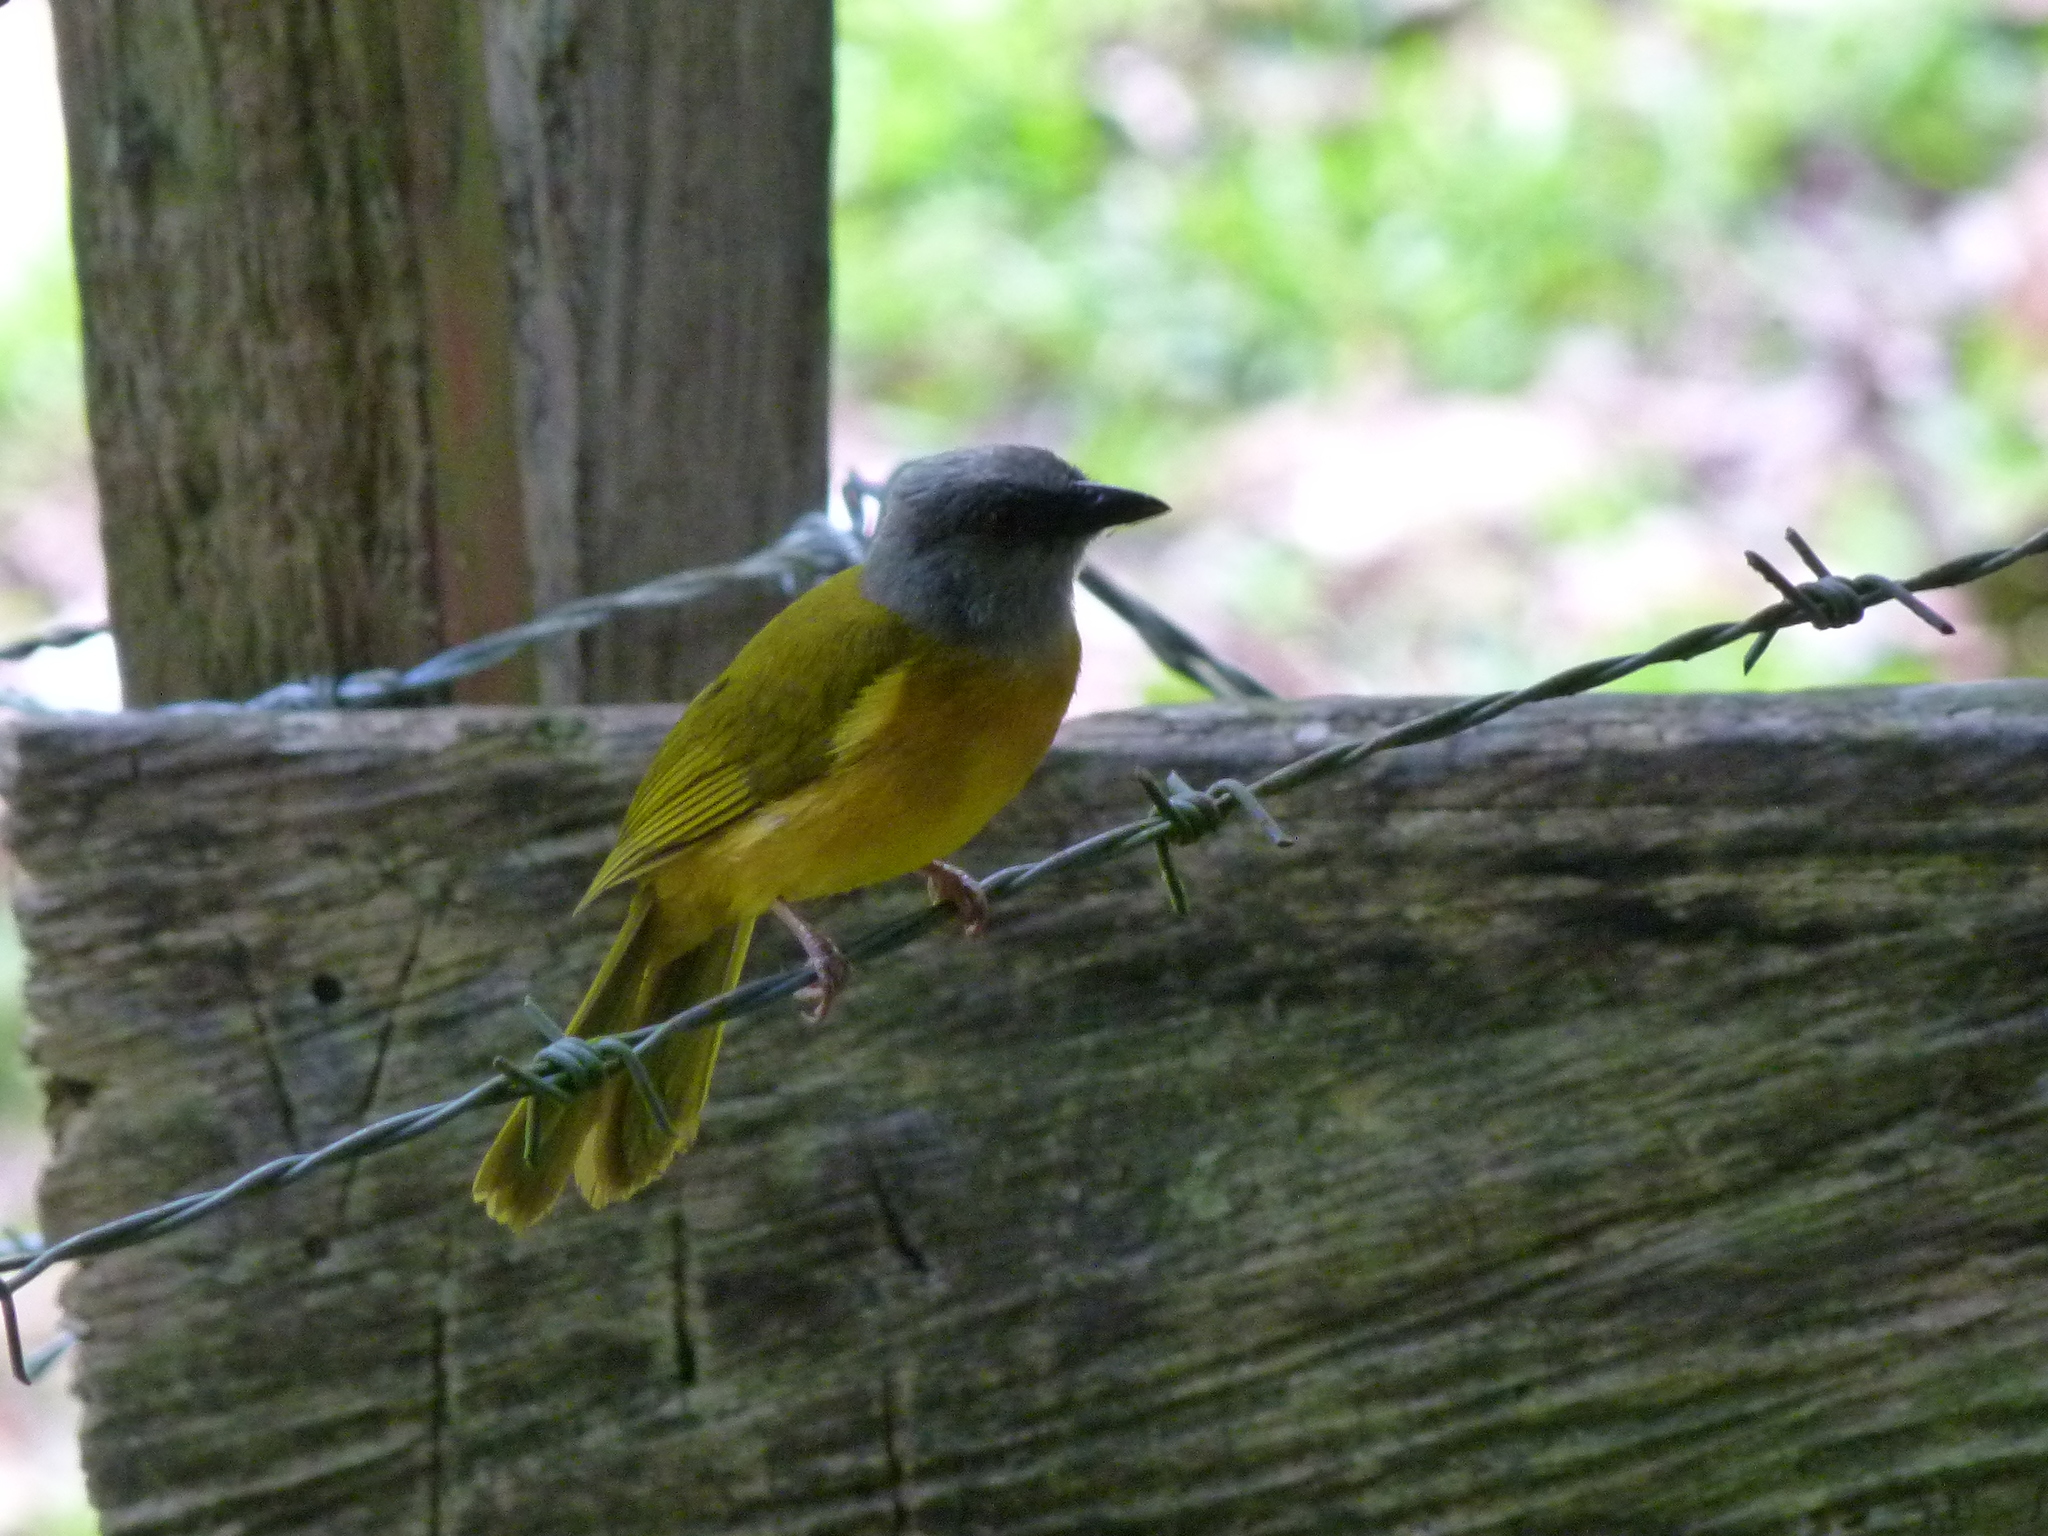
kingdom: Animalia
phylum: Chordata
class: Aves
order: Passeriformes
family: Thraupidae
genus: Eucometis
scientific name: Eucometis penicillata
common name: Grey-headed tanager
